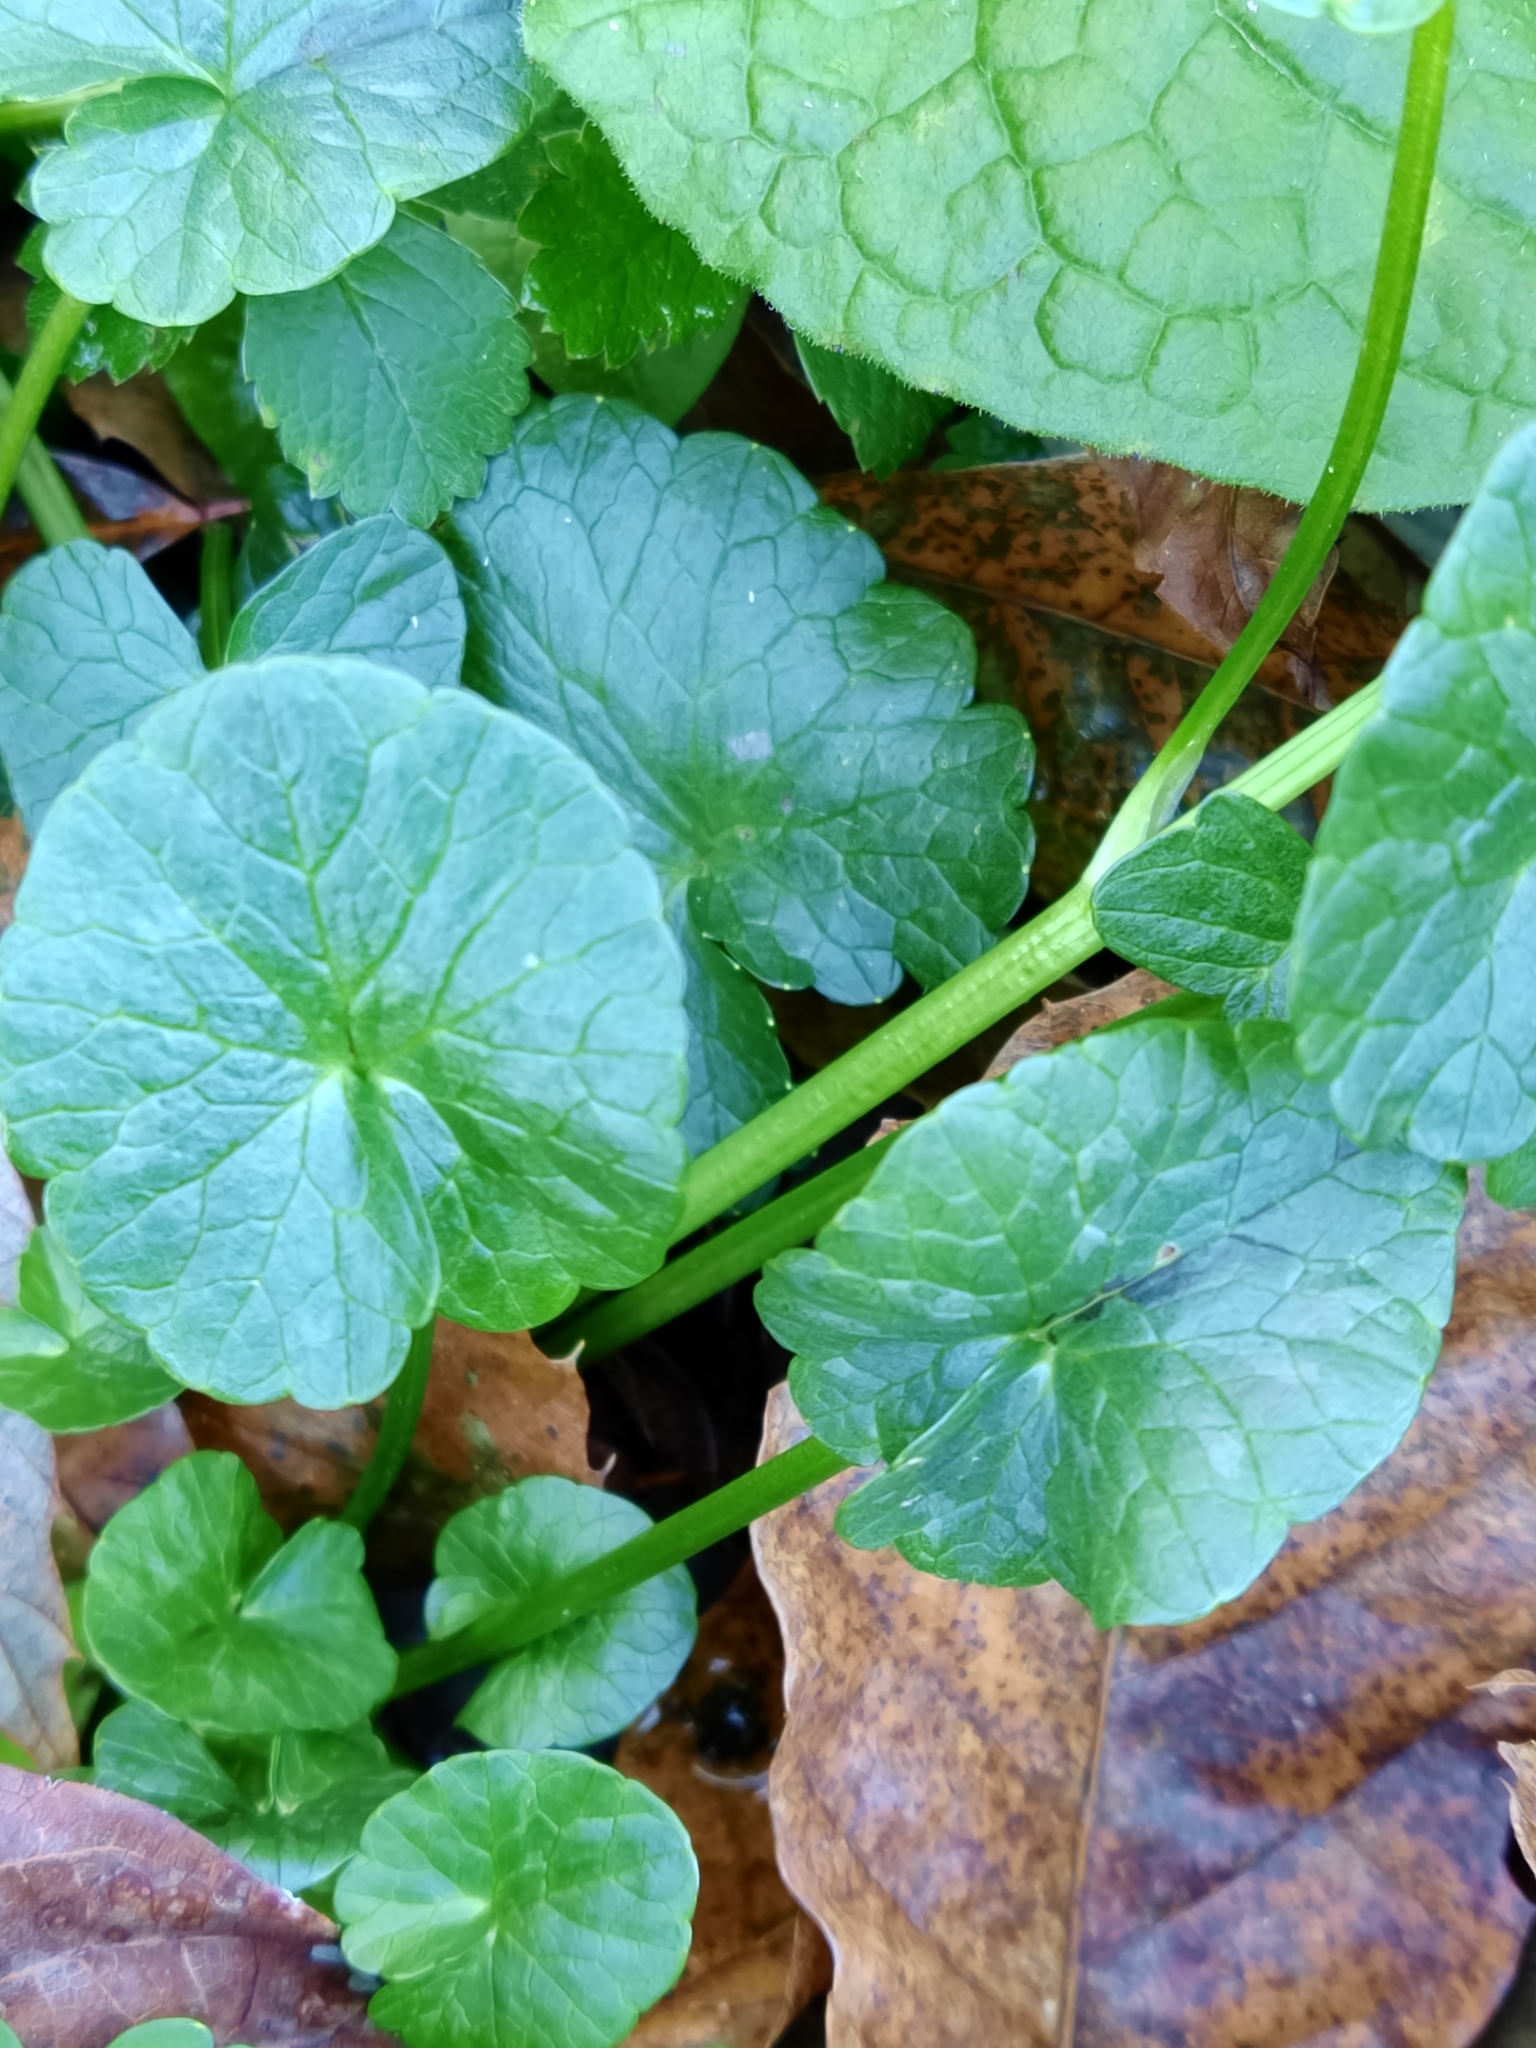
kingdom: Plantae
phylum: Tracheophyta
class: Magnoliopsida
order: Ranunculales
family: Ranunculaceae
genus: Ficaria
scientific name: Ficaria verna
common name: Lesser celandine
